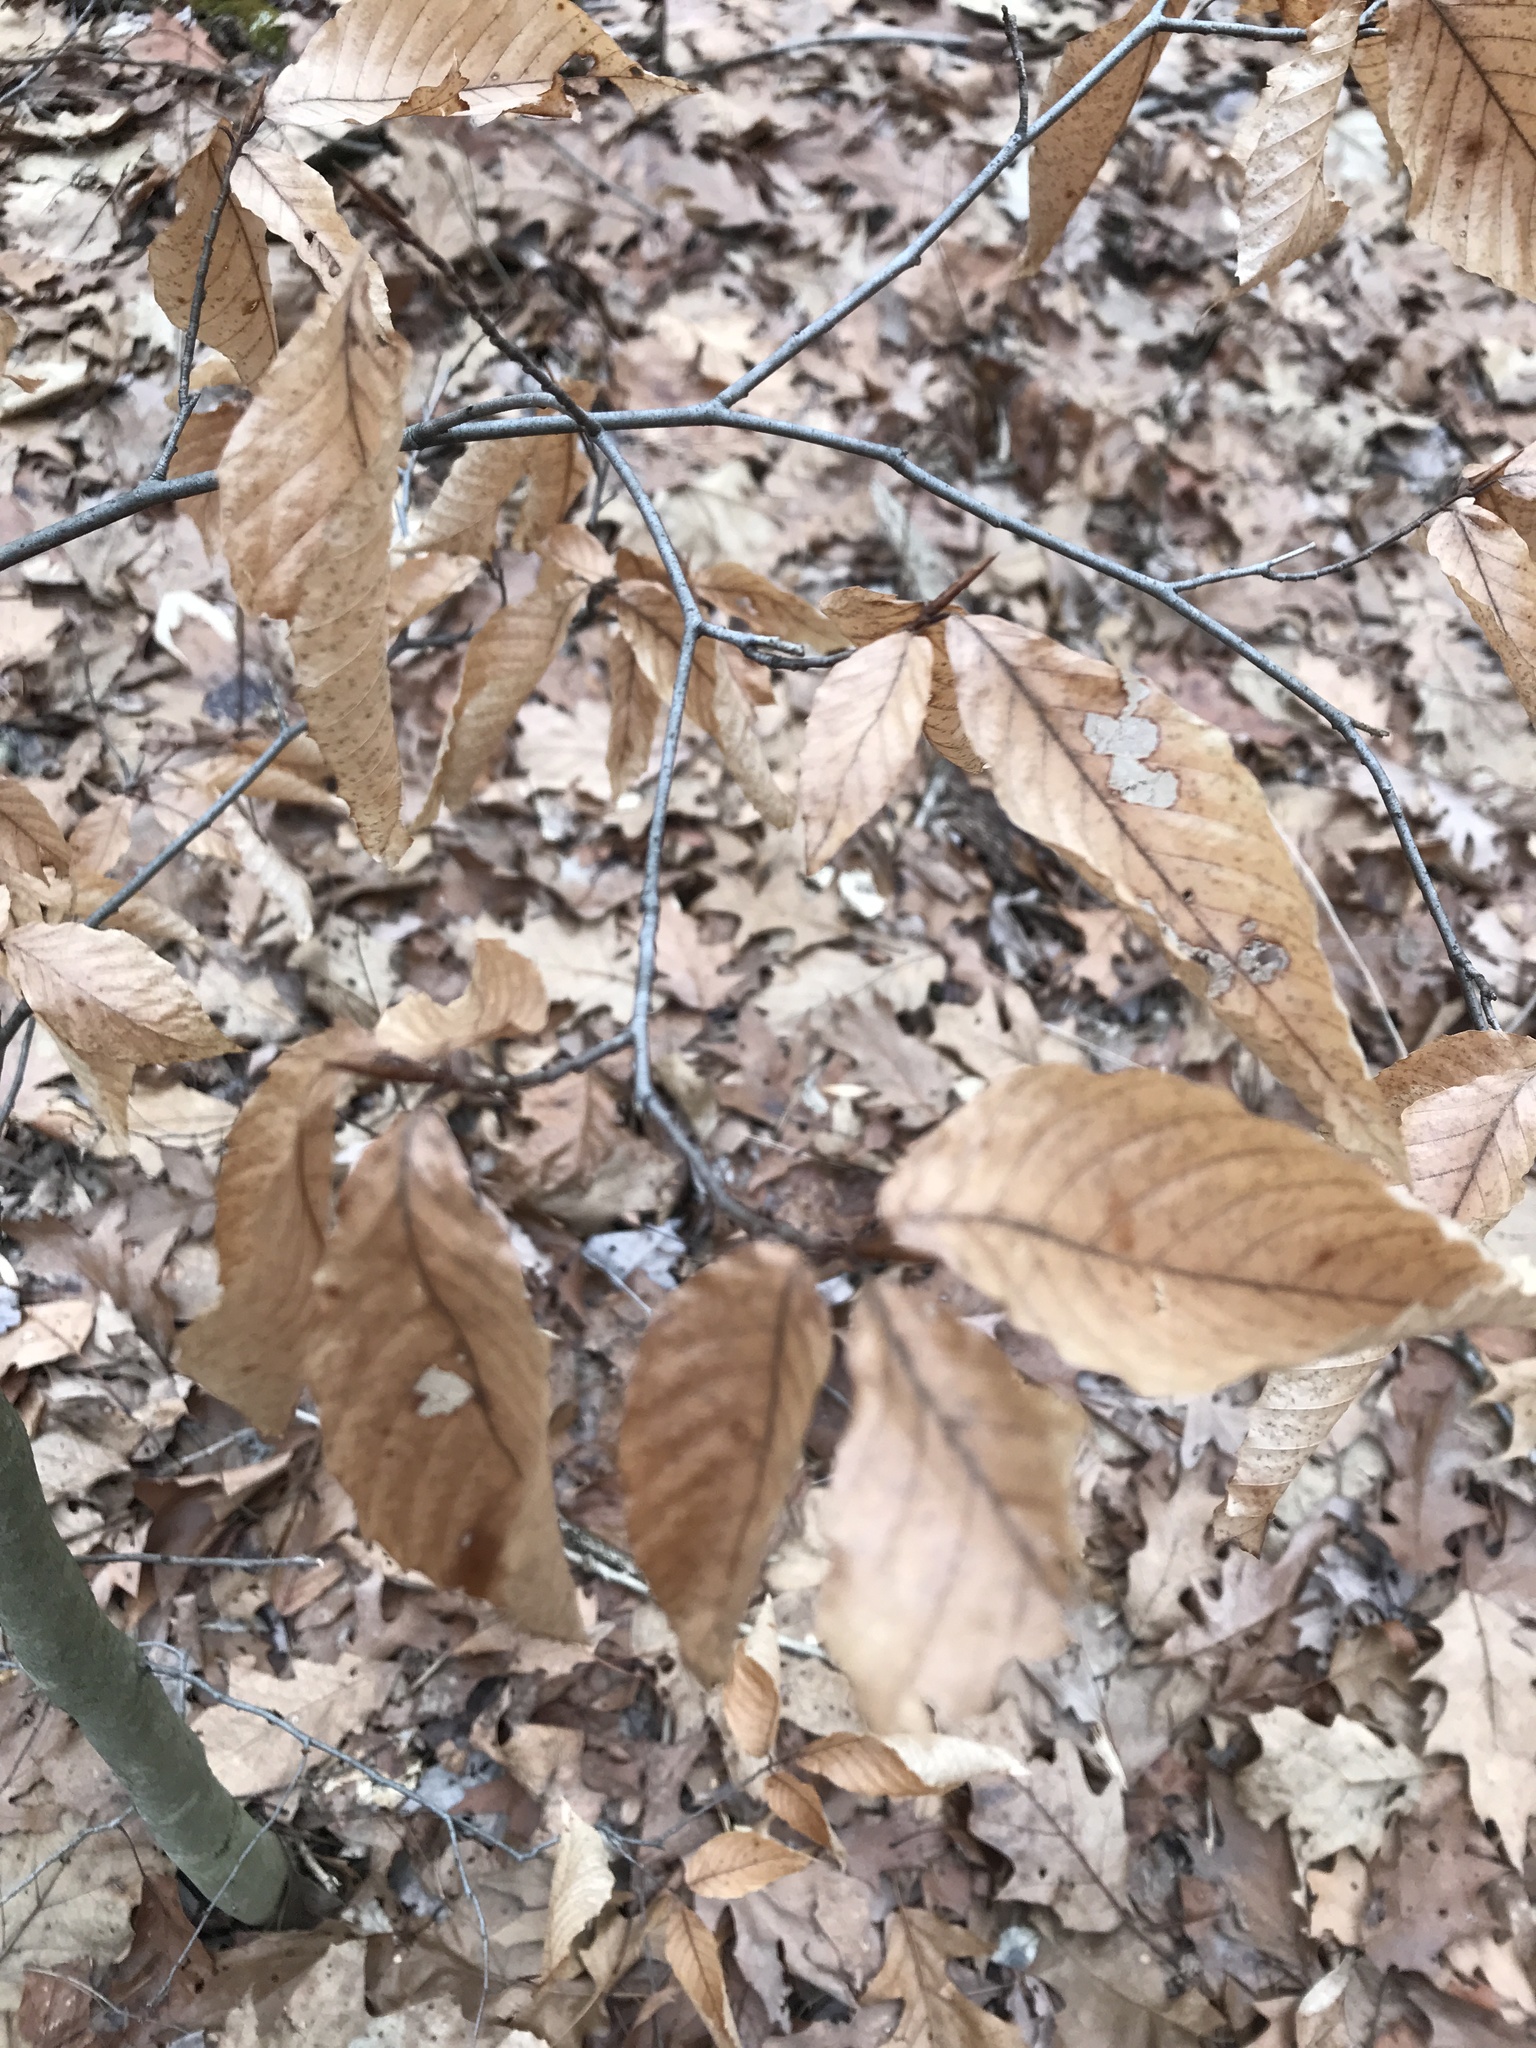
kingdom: Plantae
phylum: Tracheophyta
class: Magnoliopsida
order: Fagales
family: Fagaceae
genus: Fagus
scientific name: Fagus grandifolia
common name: American beech
